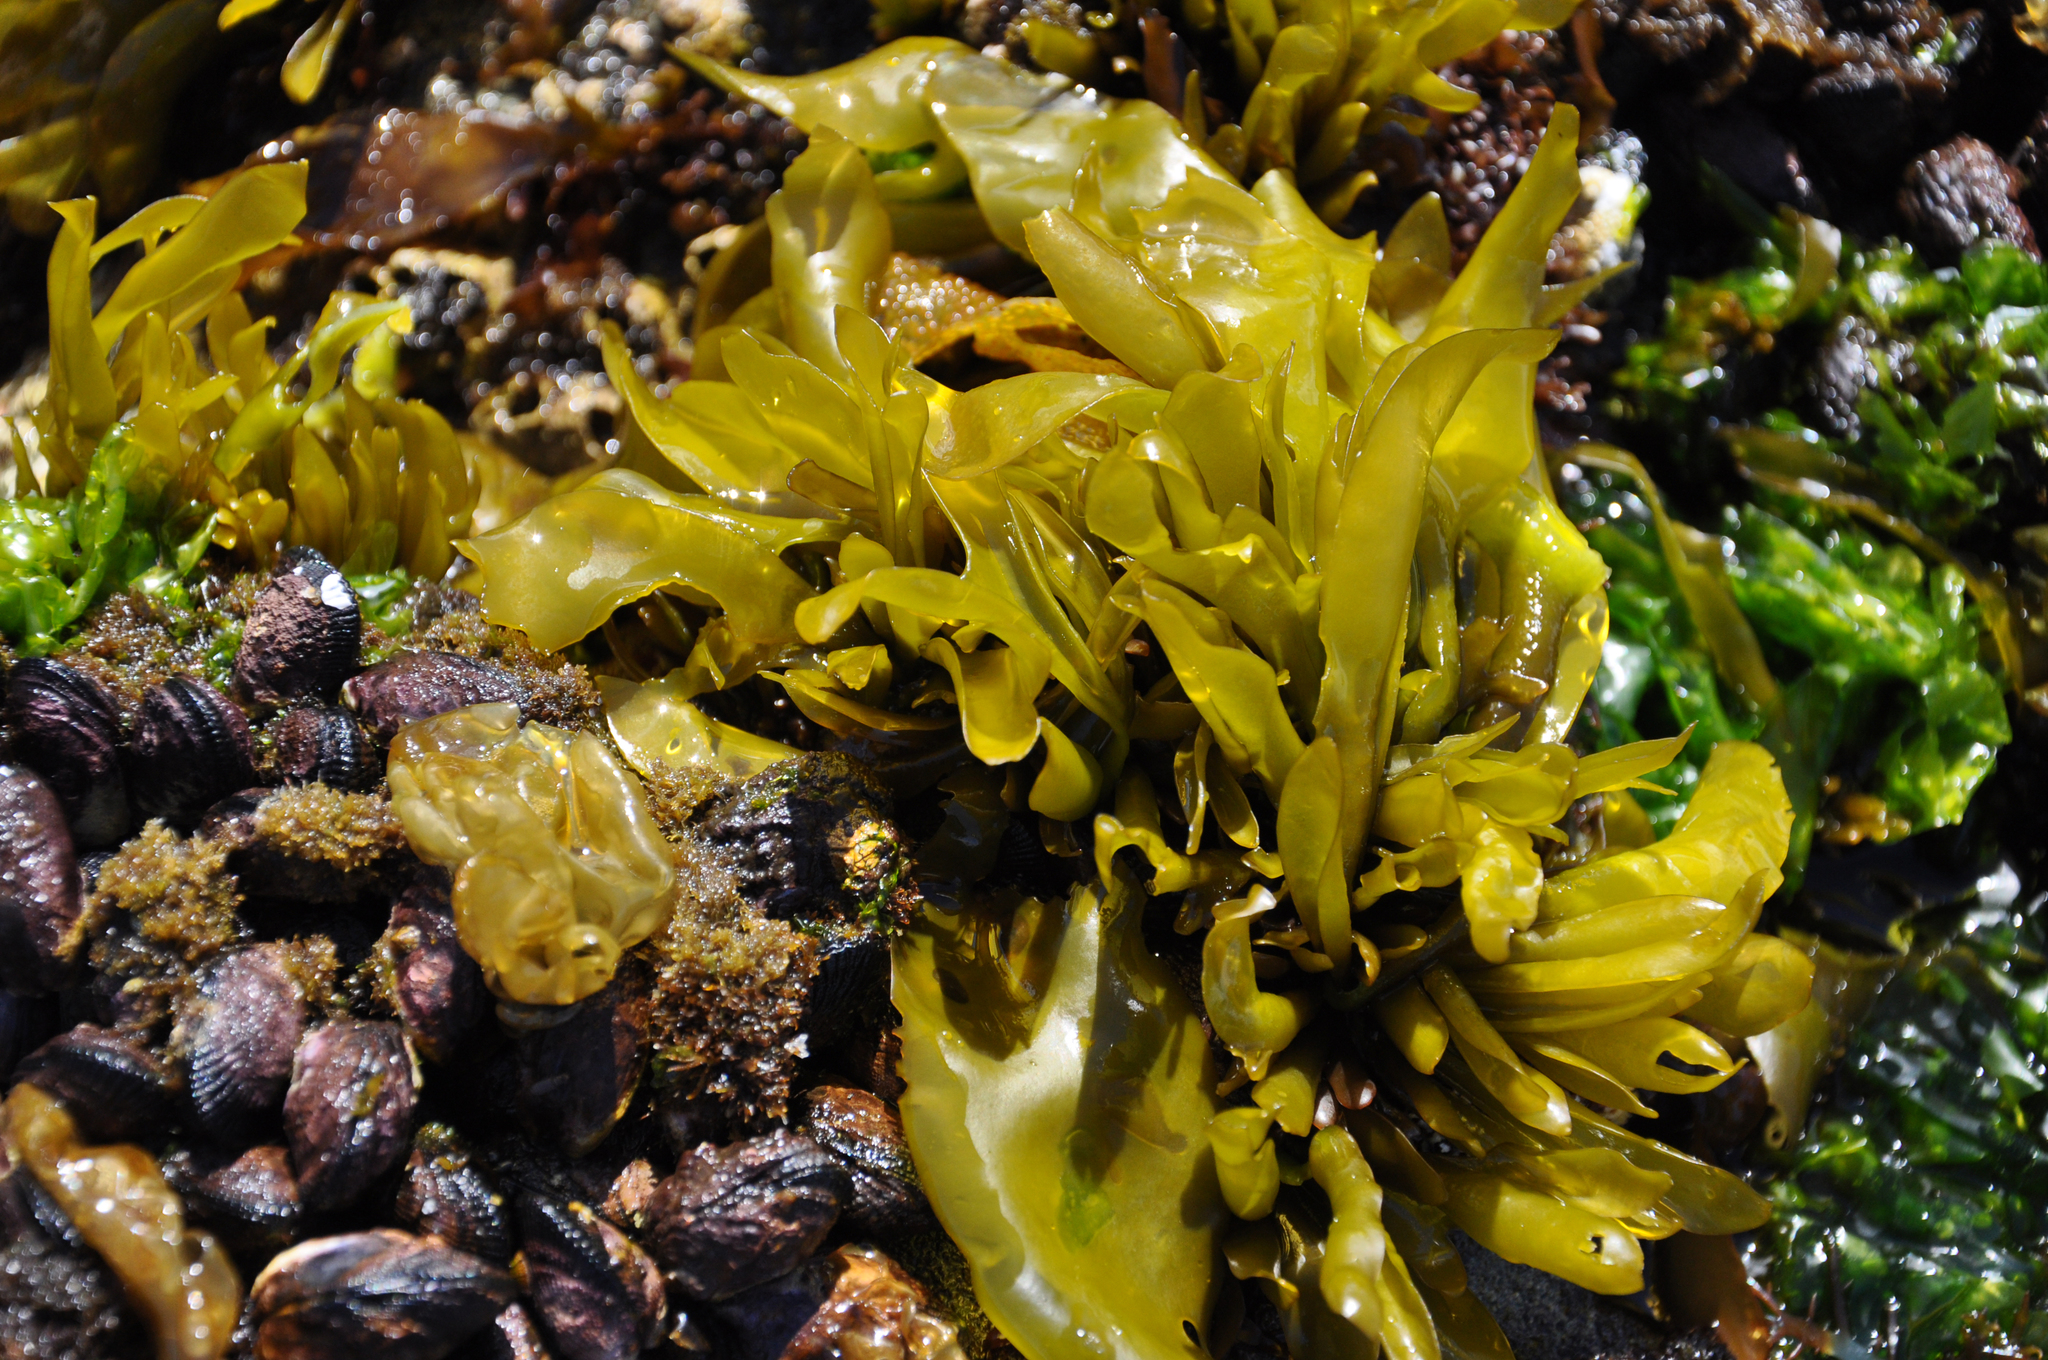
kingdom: Plantae
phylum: Rhodophyta
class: Florideophyceae
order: Gigartinales
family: Gigartinaceae
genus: Mazzaella
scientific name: Mazzaella laminarioides
